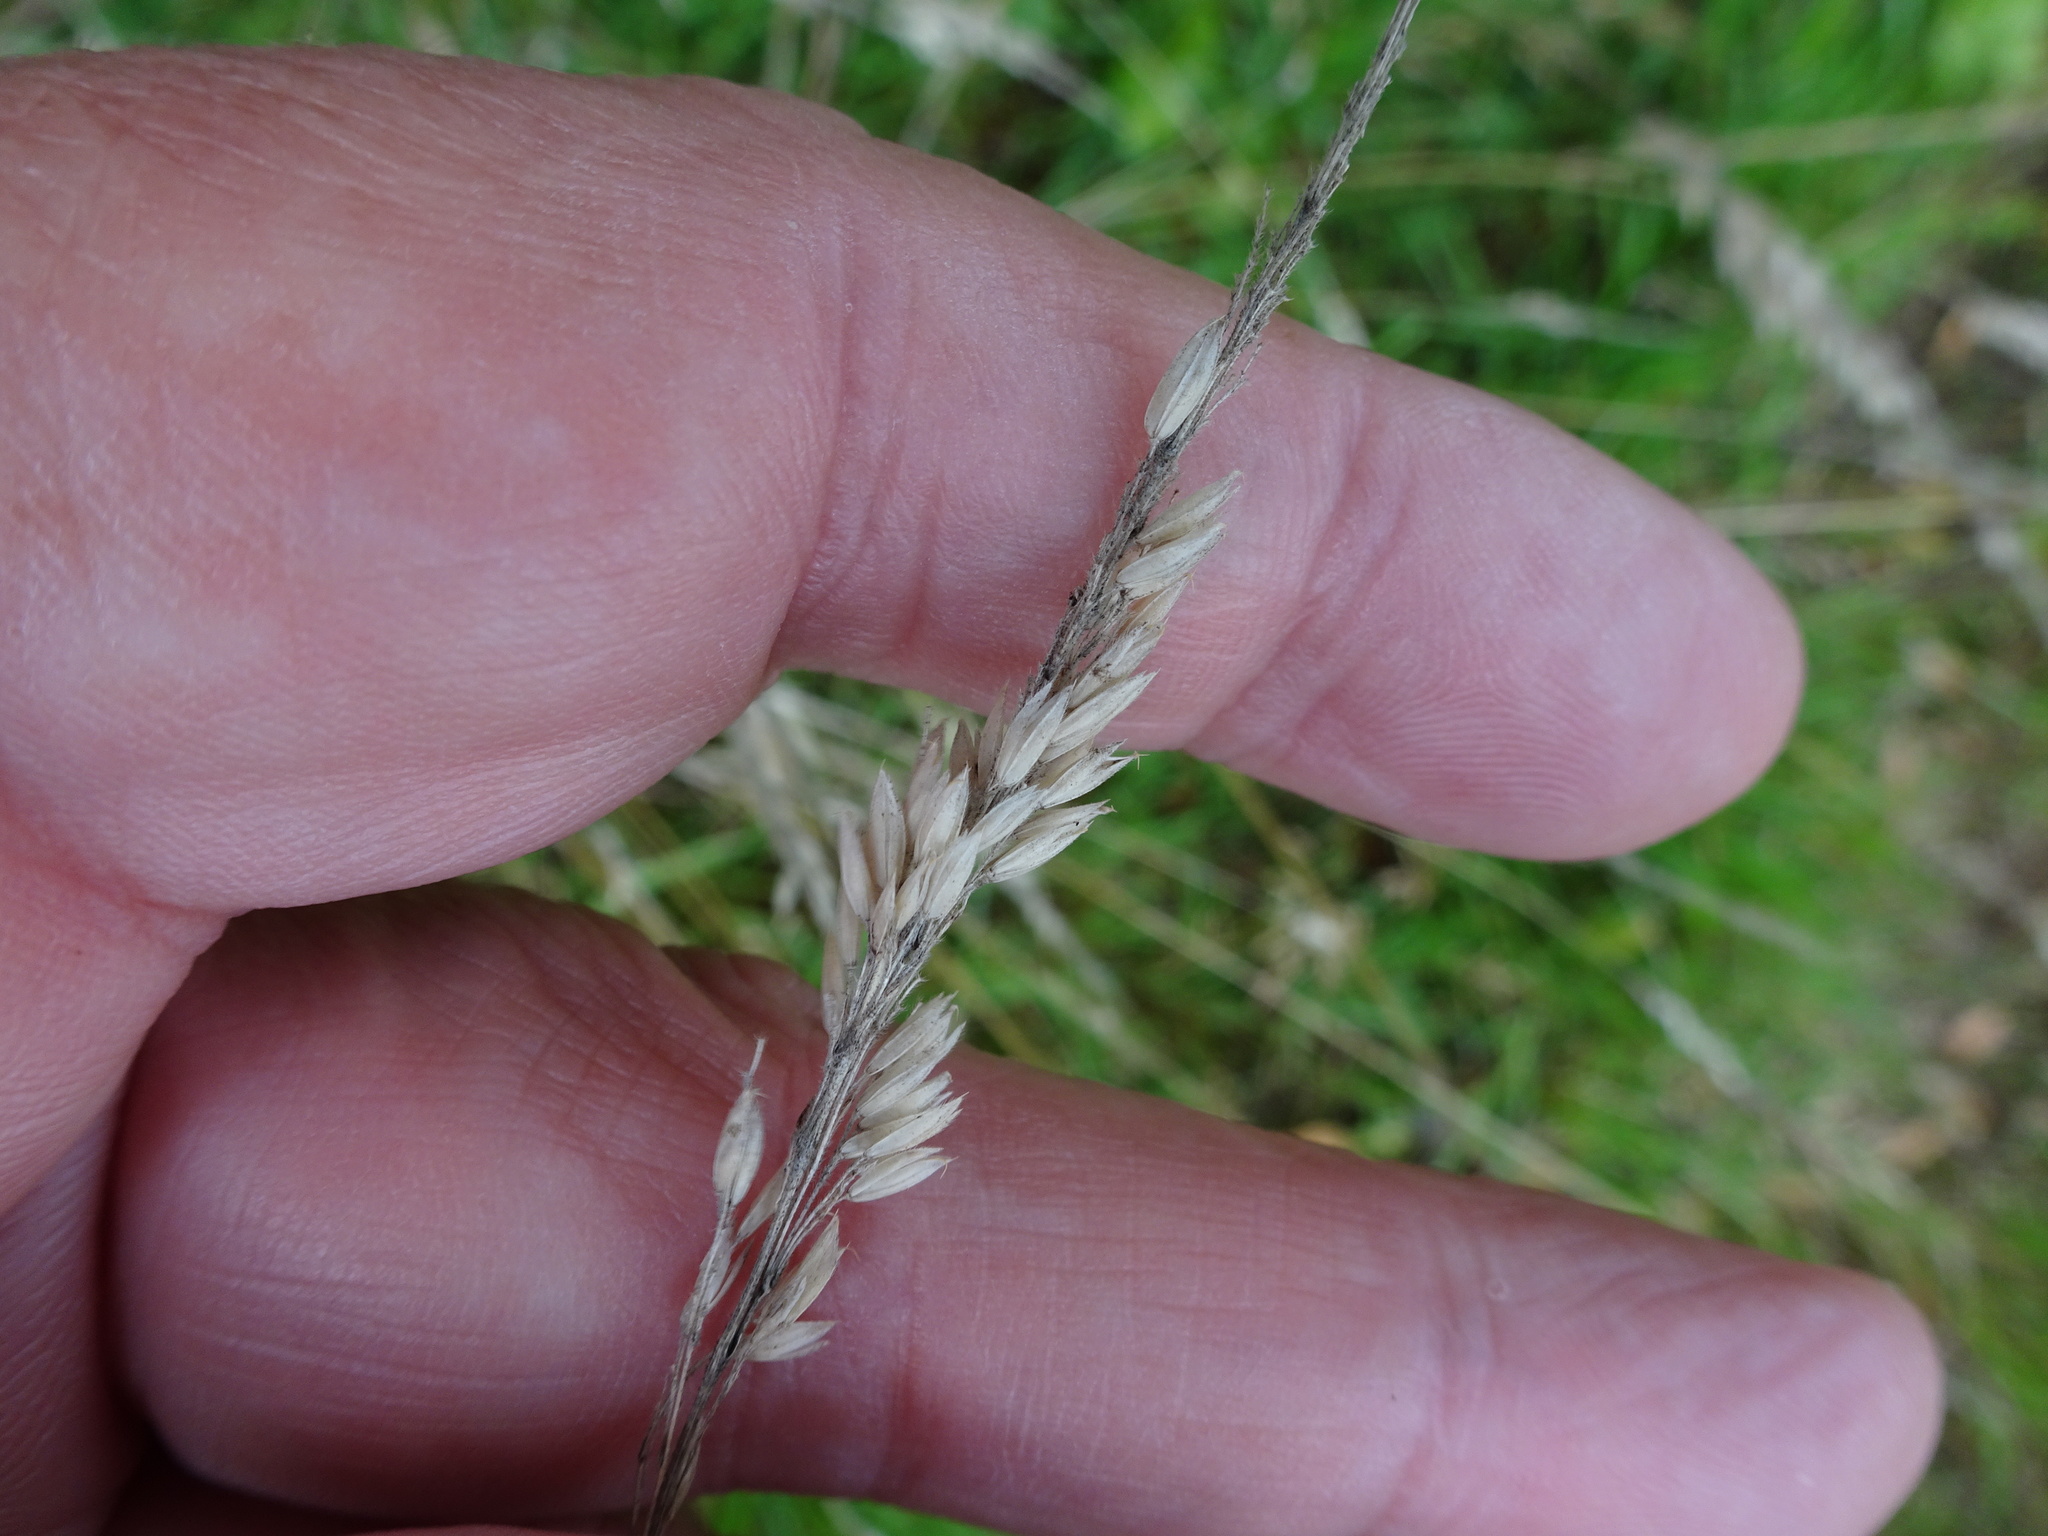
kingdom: Plantae
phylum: Tracheophyta
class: Liliopsida
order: Poales
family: Poaceae
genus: Holcus
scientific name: Holcus lanatus
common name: Yorkshire-fog
